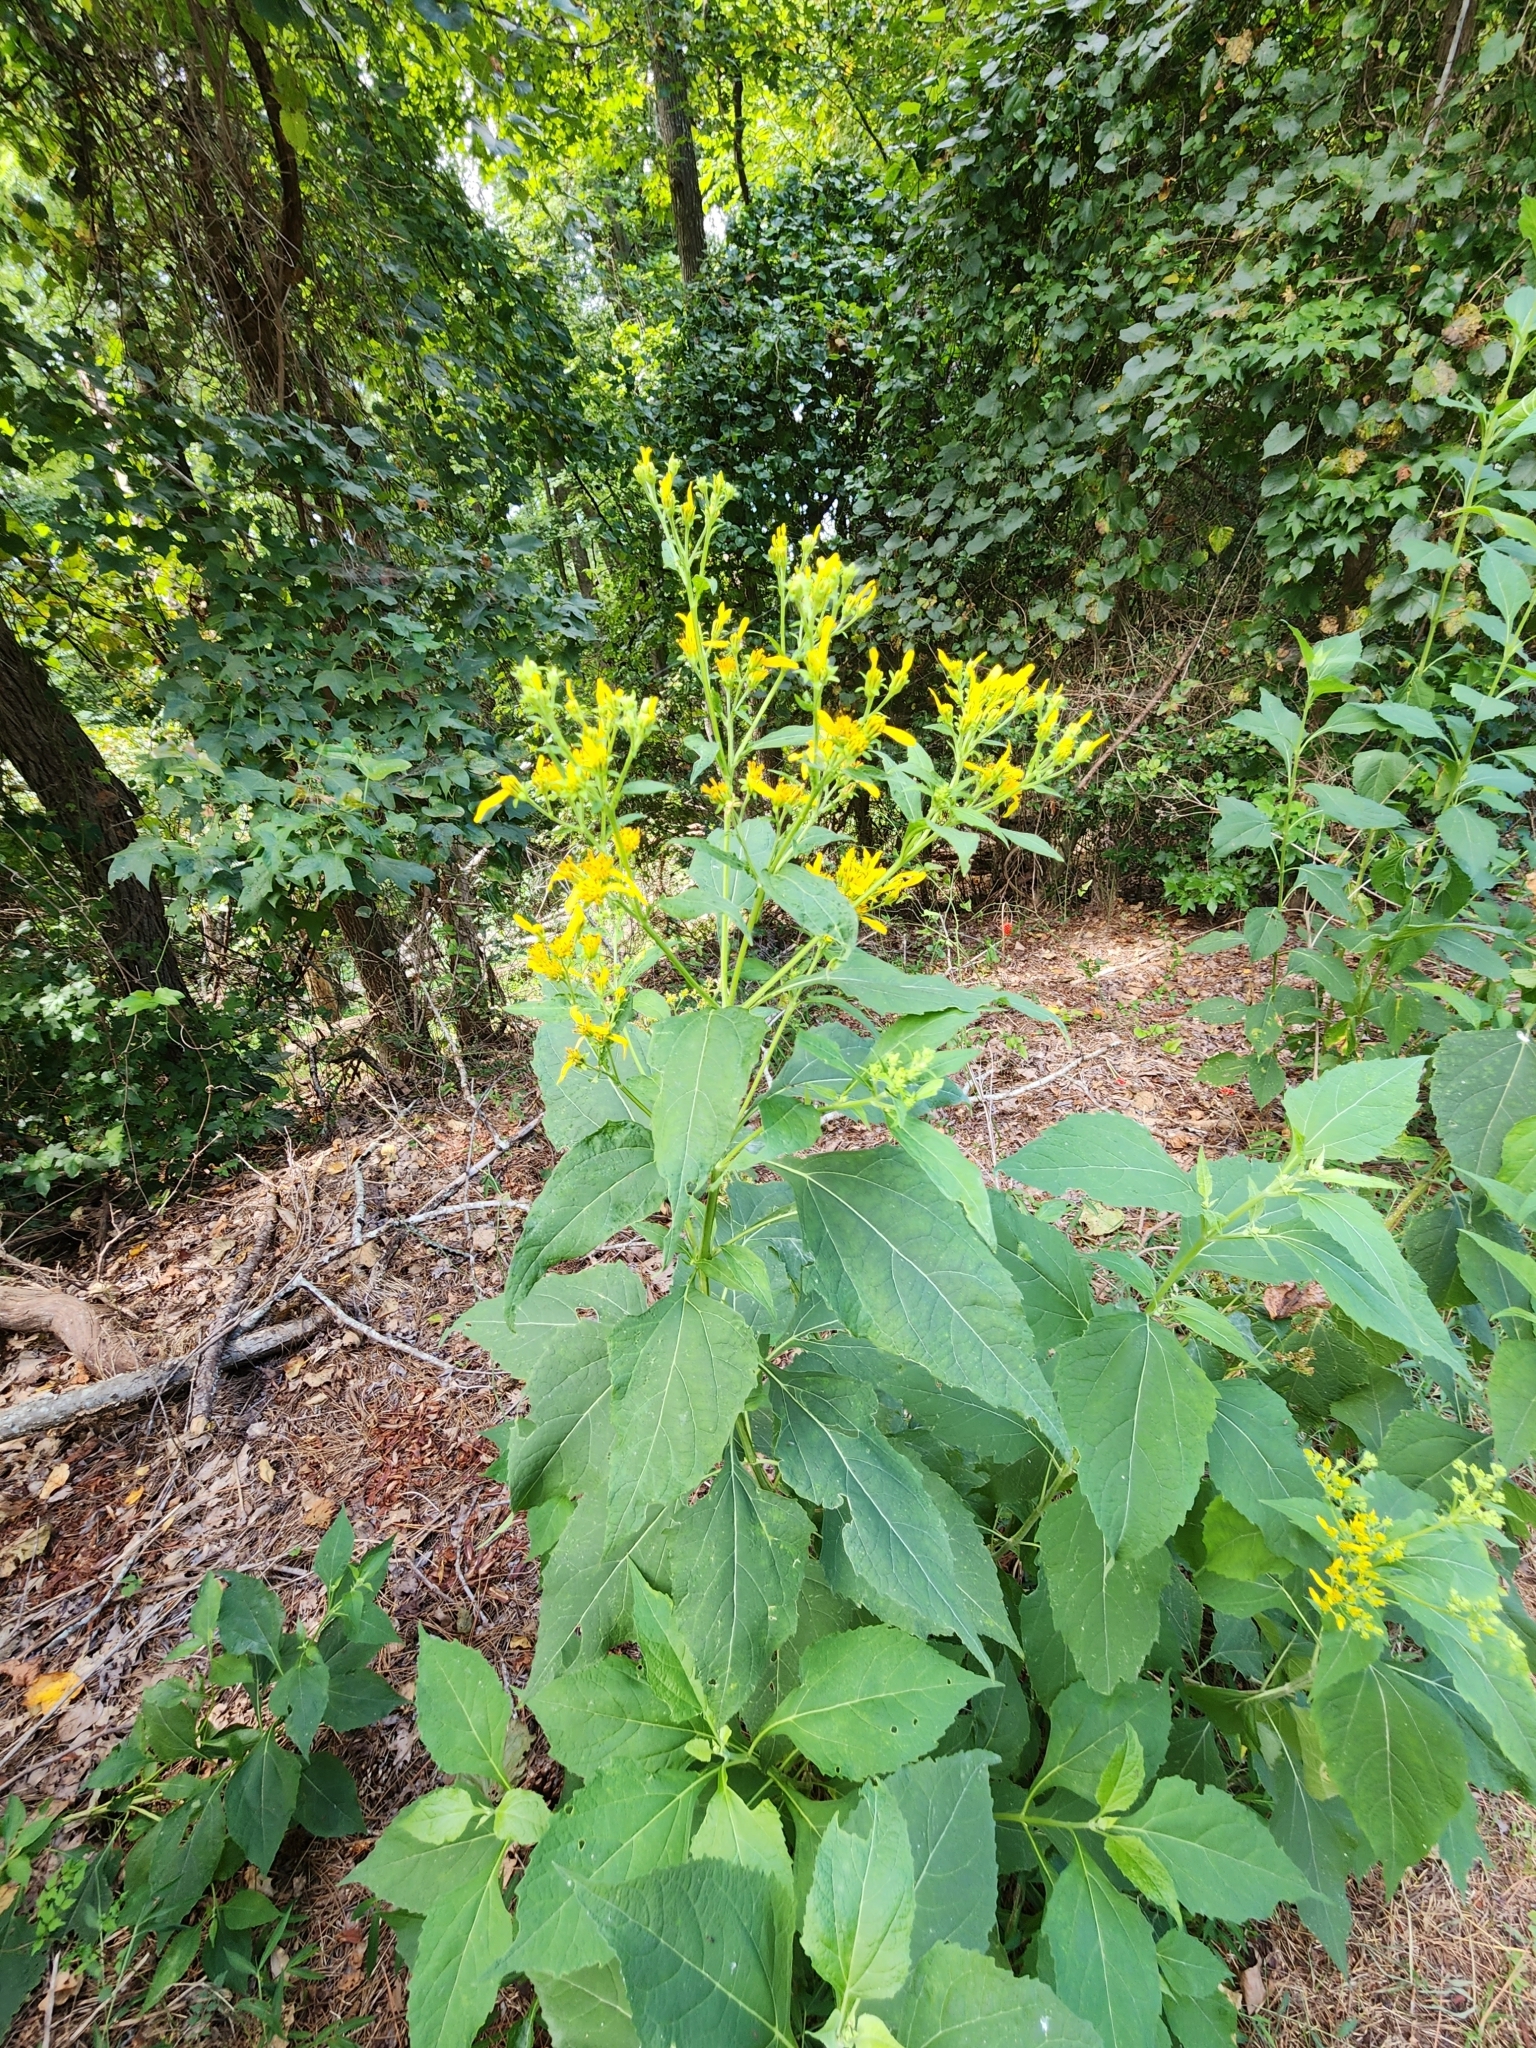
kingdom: Plantae
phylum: Tracheophyta
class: Magnoliopsida
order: Asterales
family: Asteraceae
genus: Verbesina
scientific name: Verbesina occidentalis
